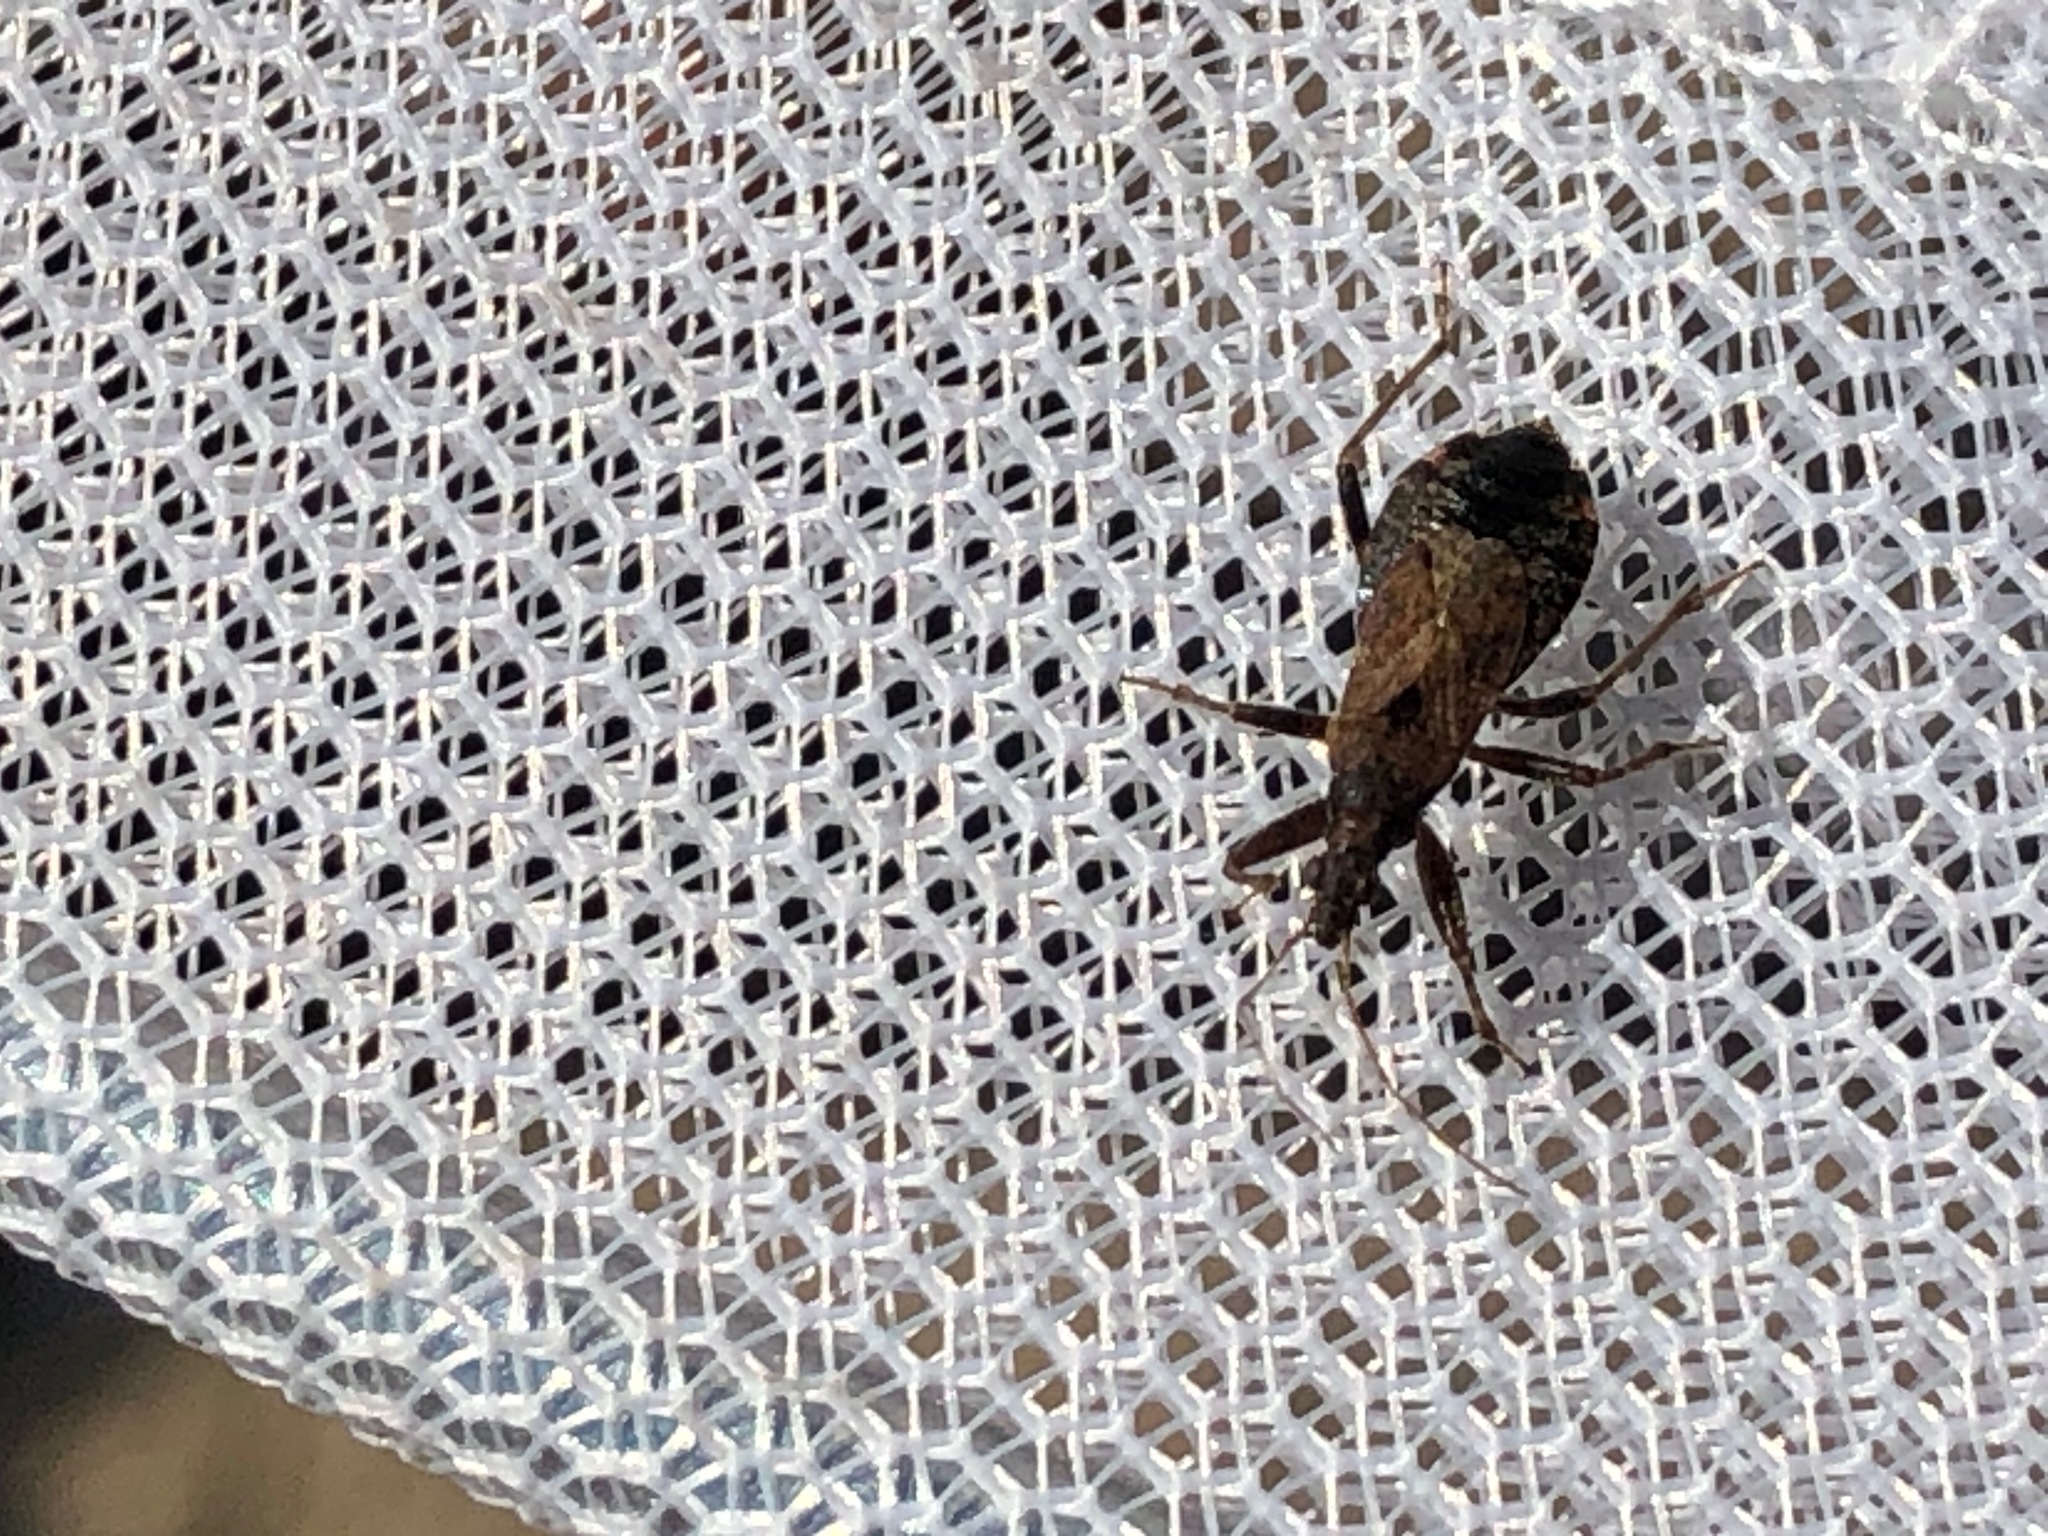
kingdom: Animalia
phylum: Arthropoda
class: Insecta
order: Hemiptera
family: Nabidae
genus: Himacerus
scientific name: Himacerus mirmicoides
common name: Ant damsel bug
